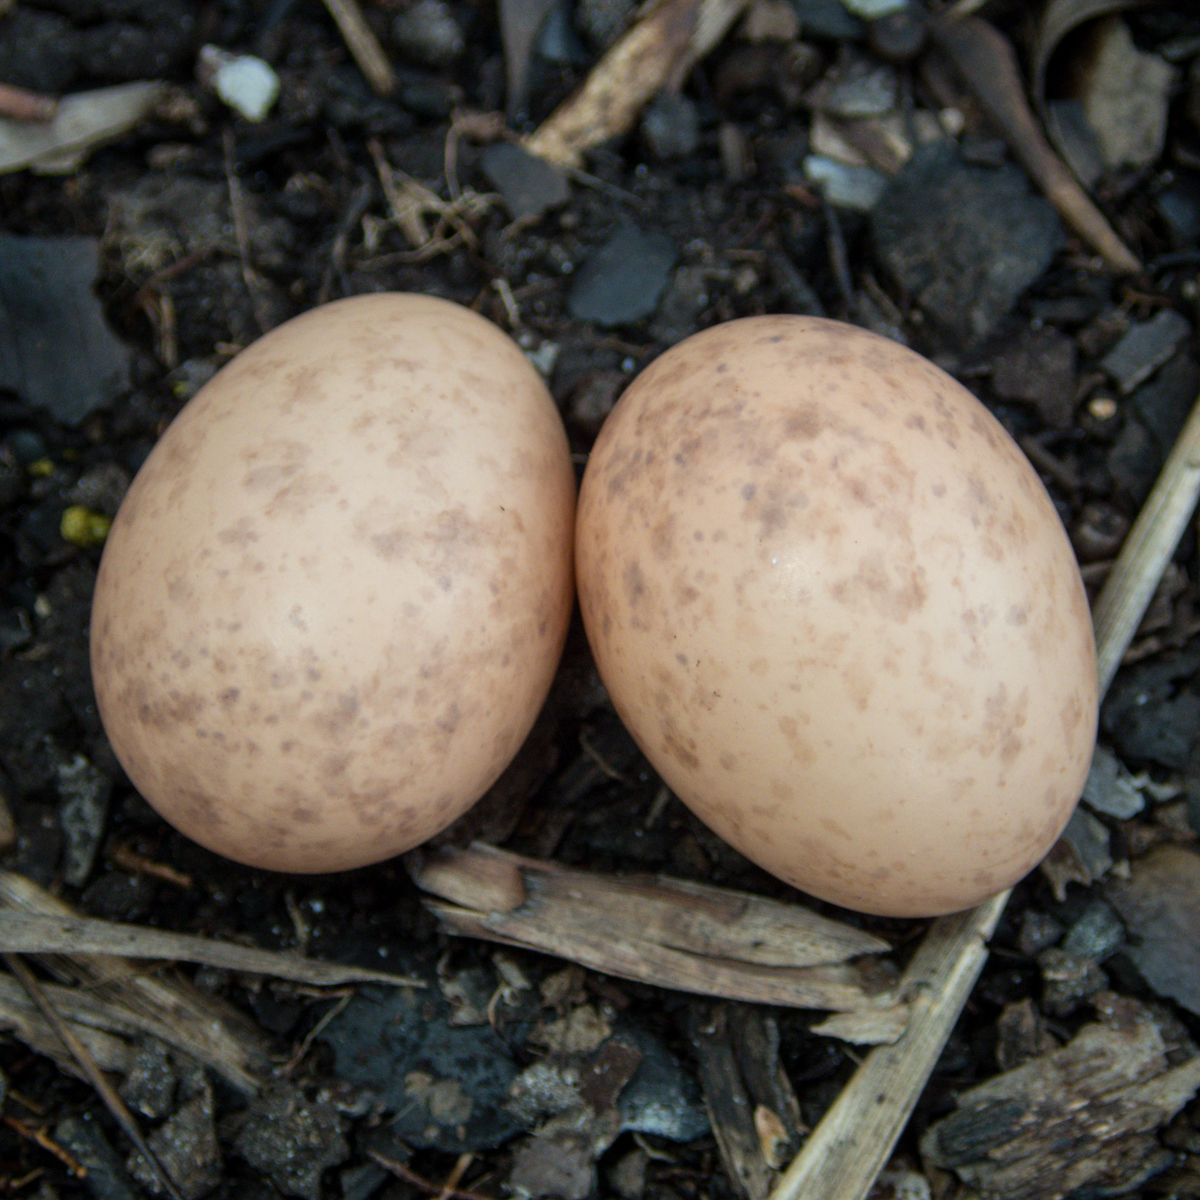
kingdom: Animalia
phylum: Chordata
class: Aves
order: Caprimulgiformes
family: Caprimulgidae
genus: Caprimulgus
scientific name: Caprimulgus macrurus
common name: Large-tailed nightjar
